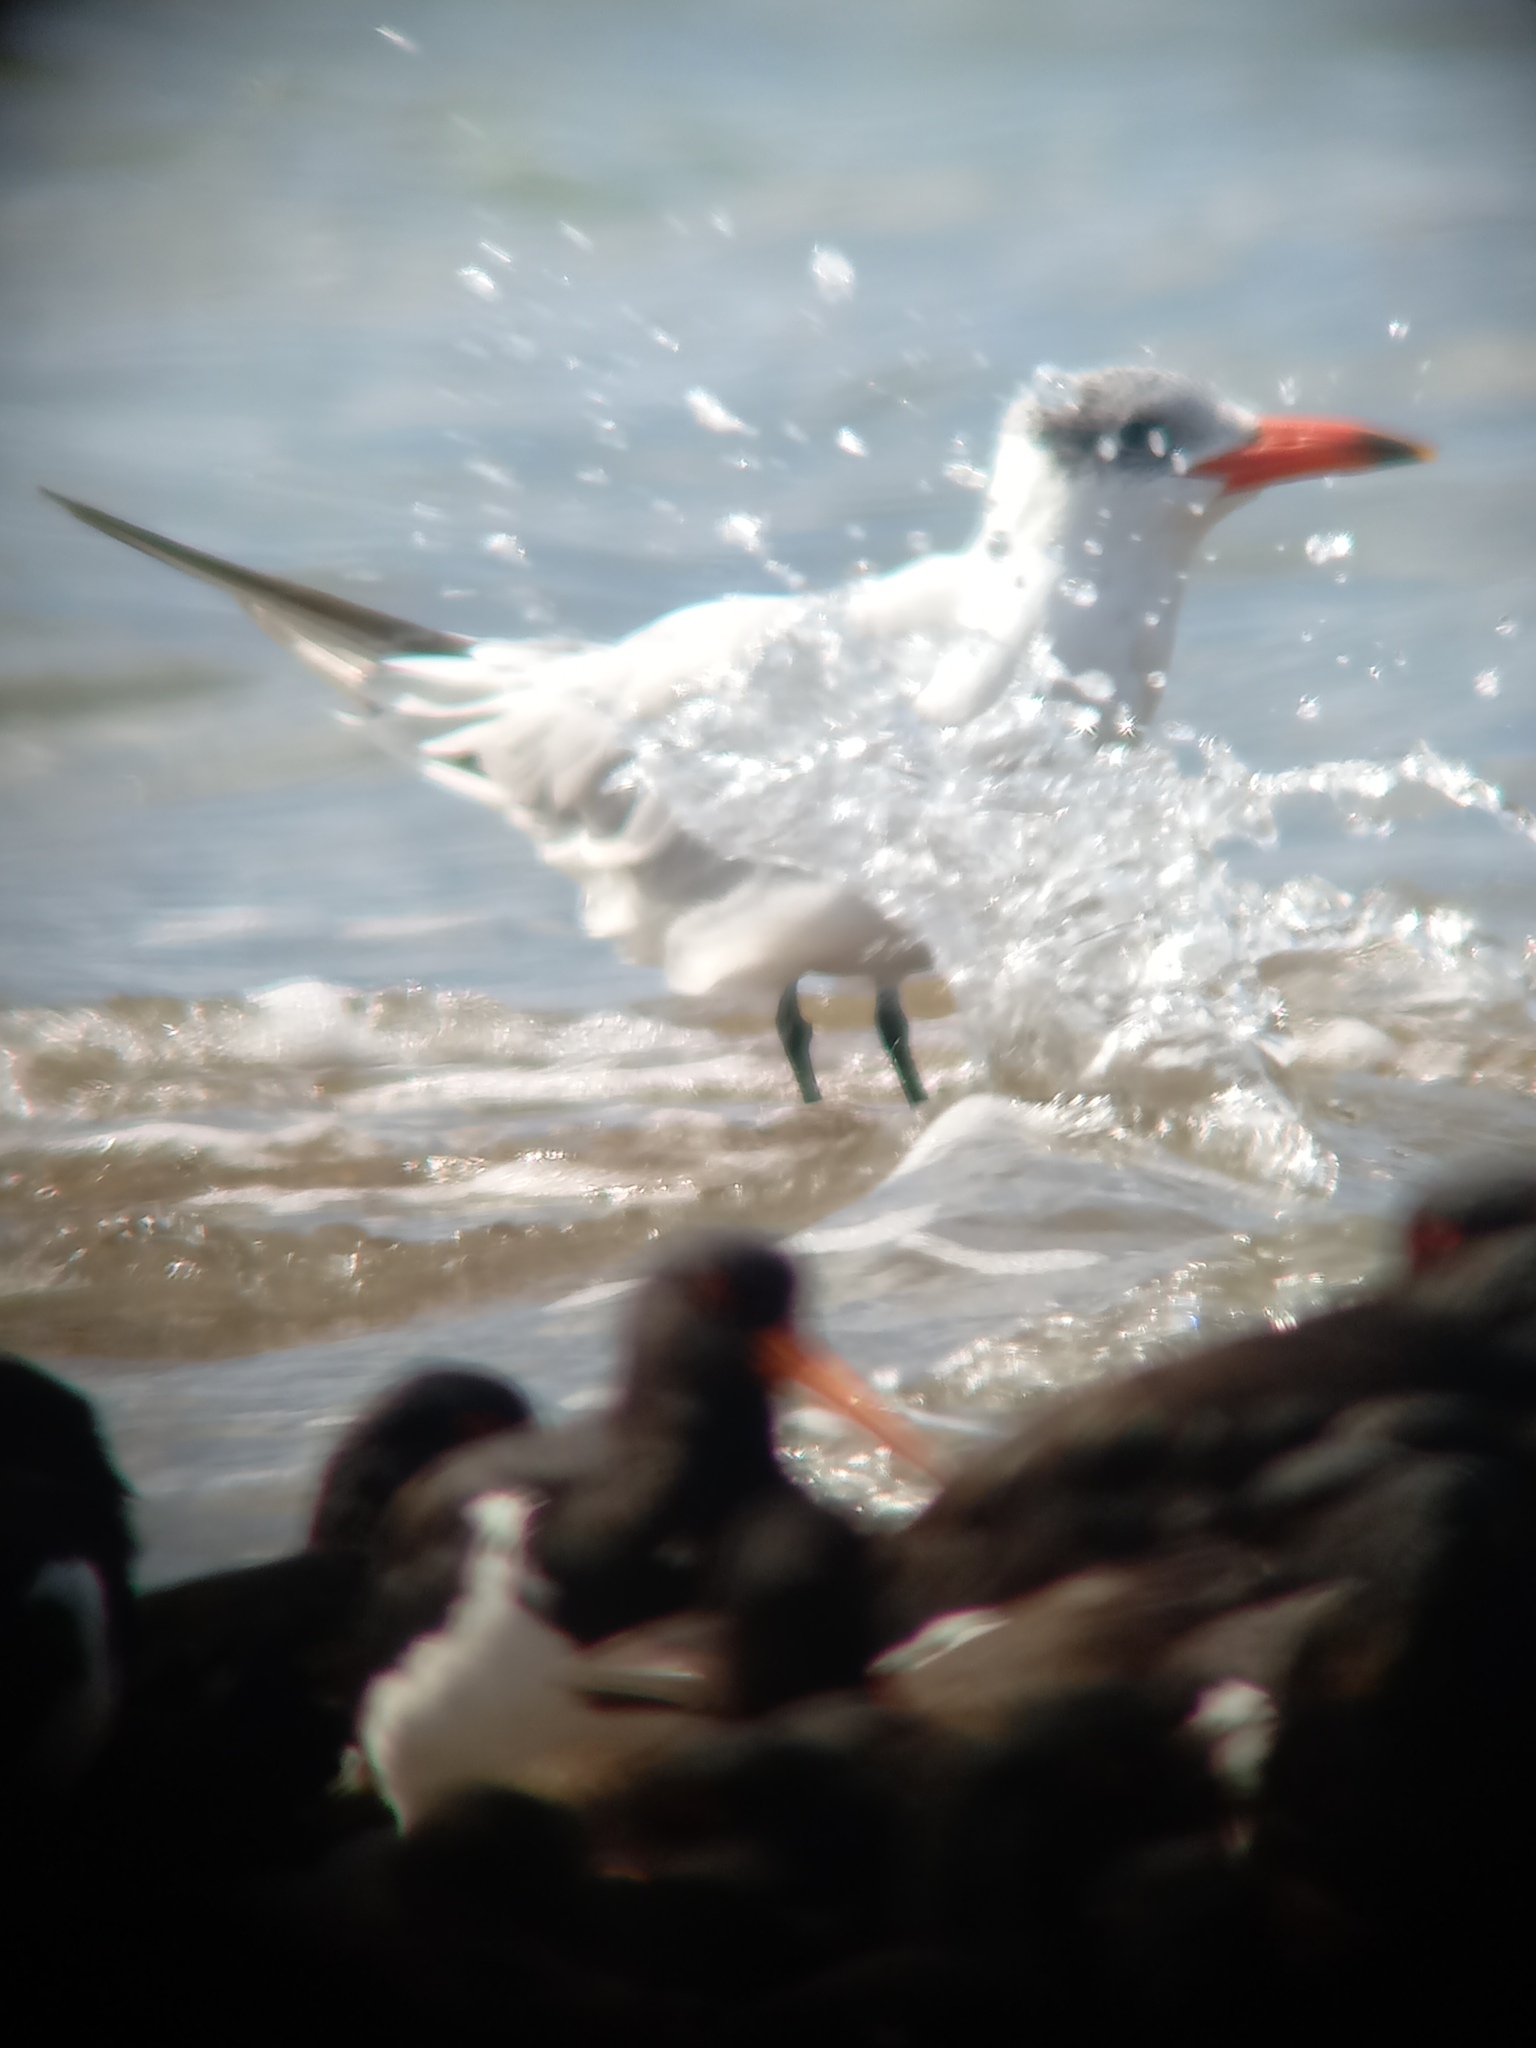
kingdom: Animalia
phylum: Chordata
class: Aves
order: Charadriiformes
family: Laridae
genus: Hydroprogne
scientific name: Hydroprogne caspia
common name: Caspian tern
